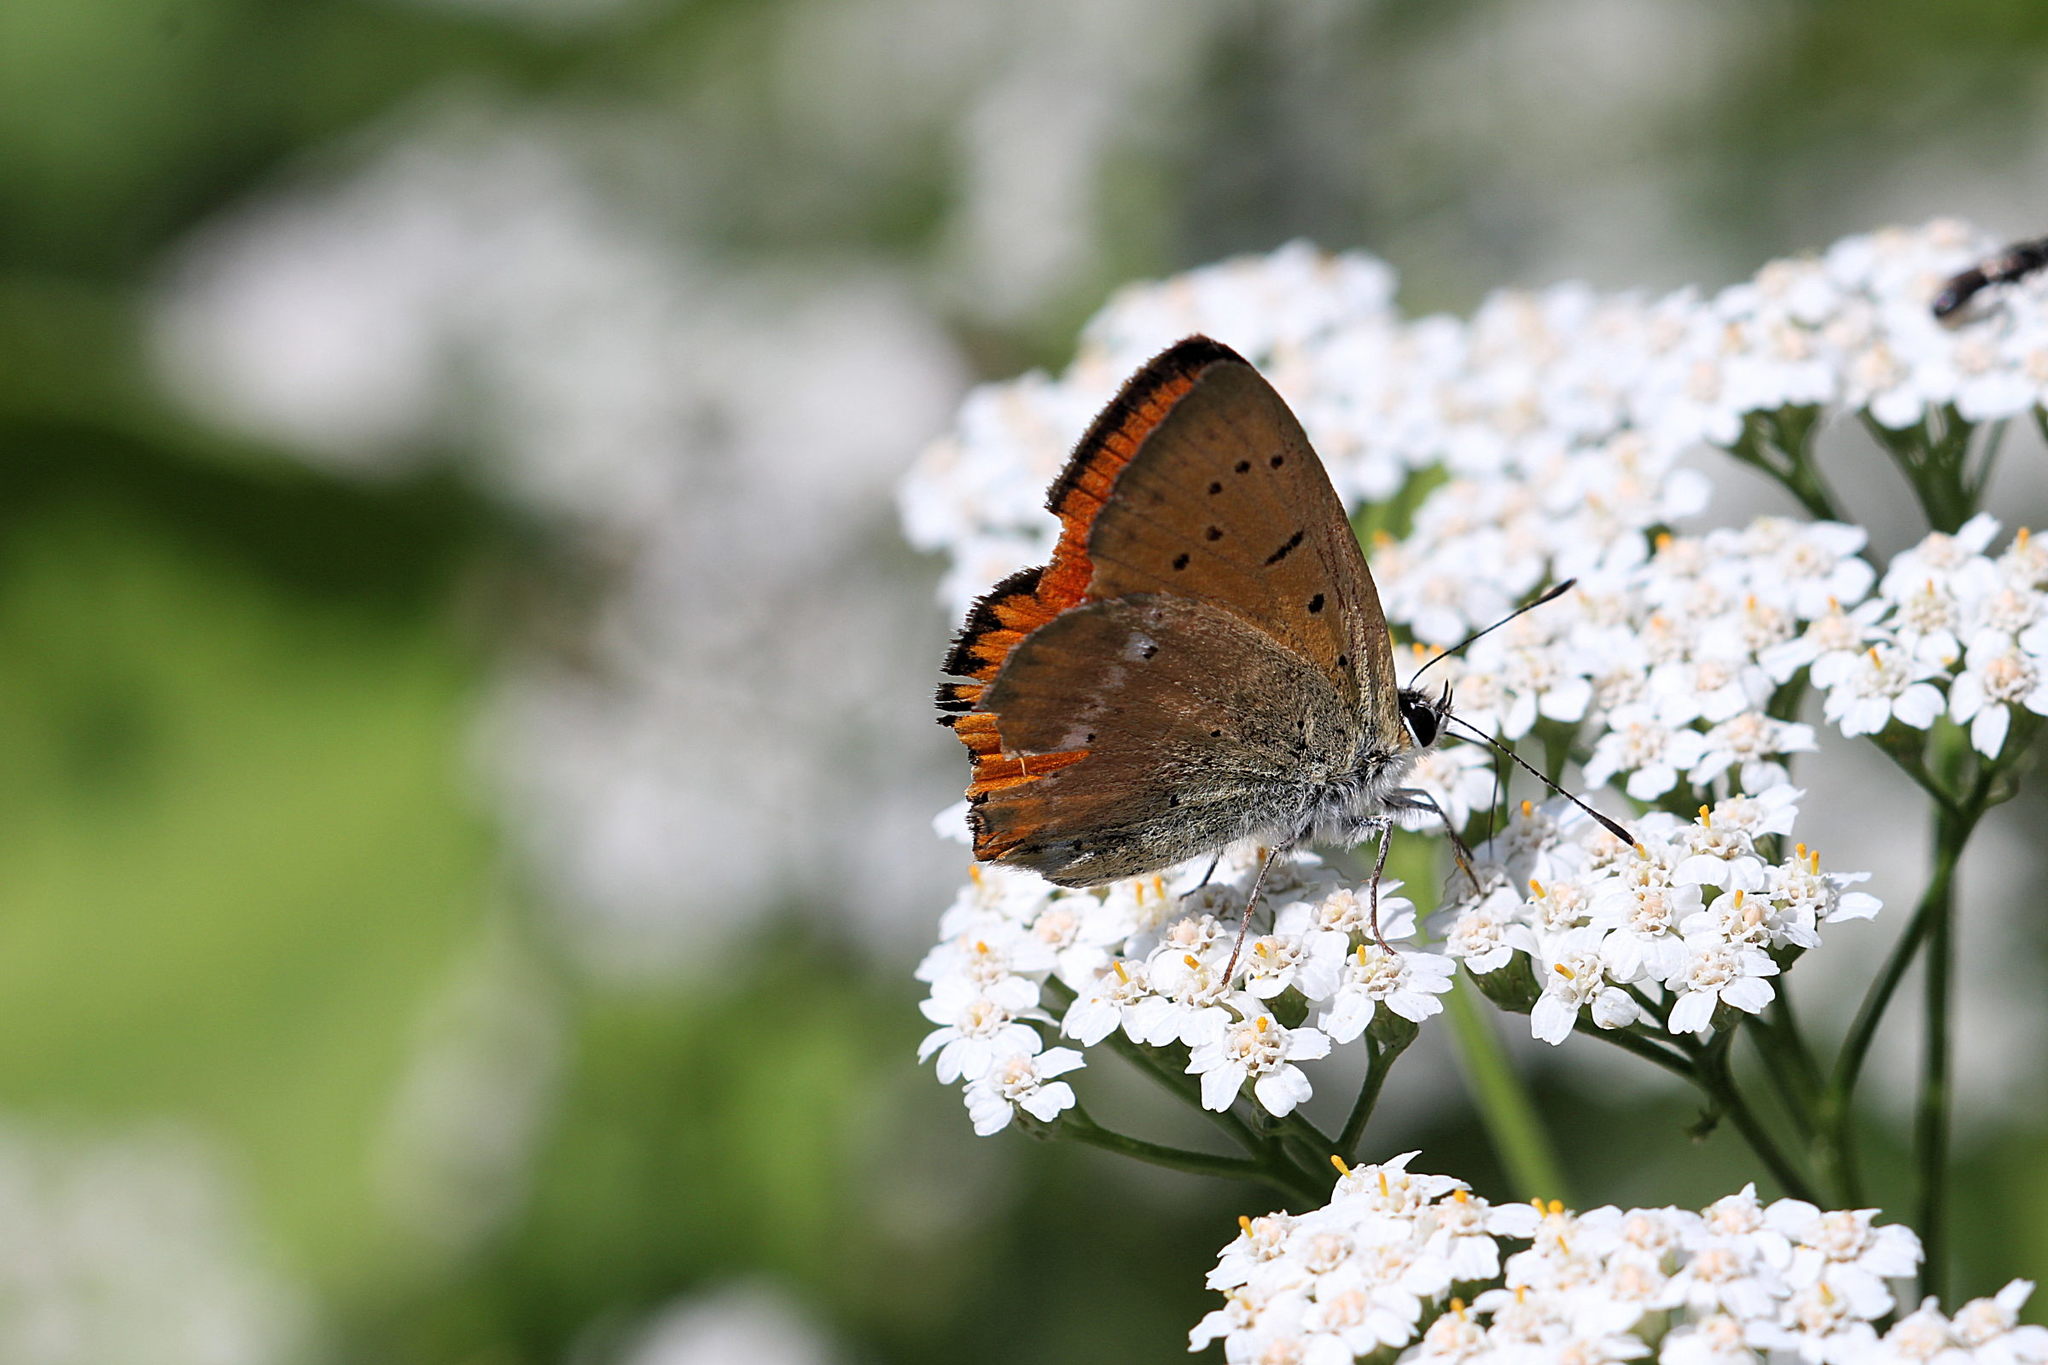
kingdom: Animalia
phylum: Arthropoda
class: Insecta
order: Lepidoptera
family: Lycaenidae
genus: Lycaena
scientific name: Lycaena virgaureae
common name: Scarce copper
